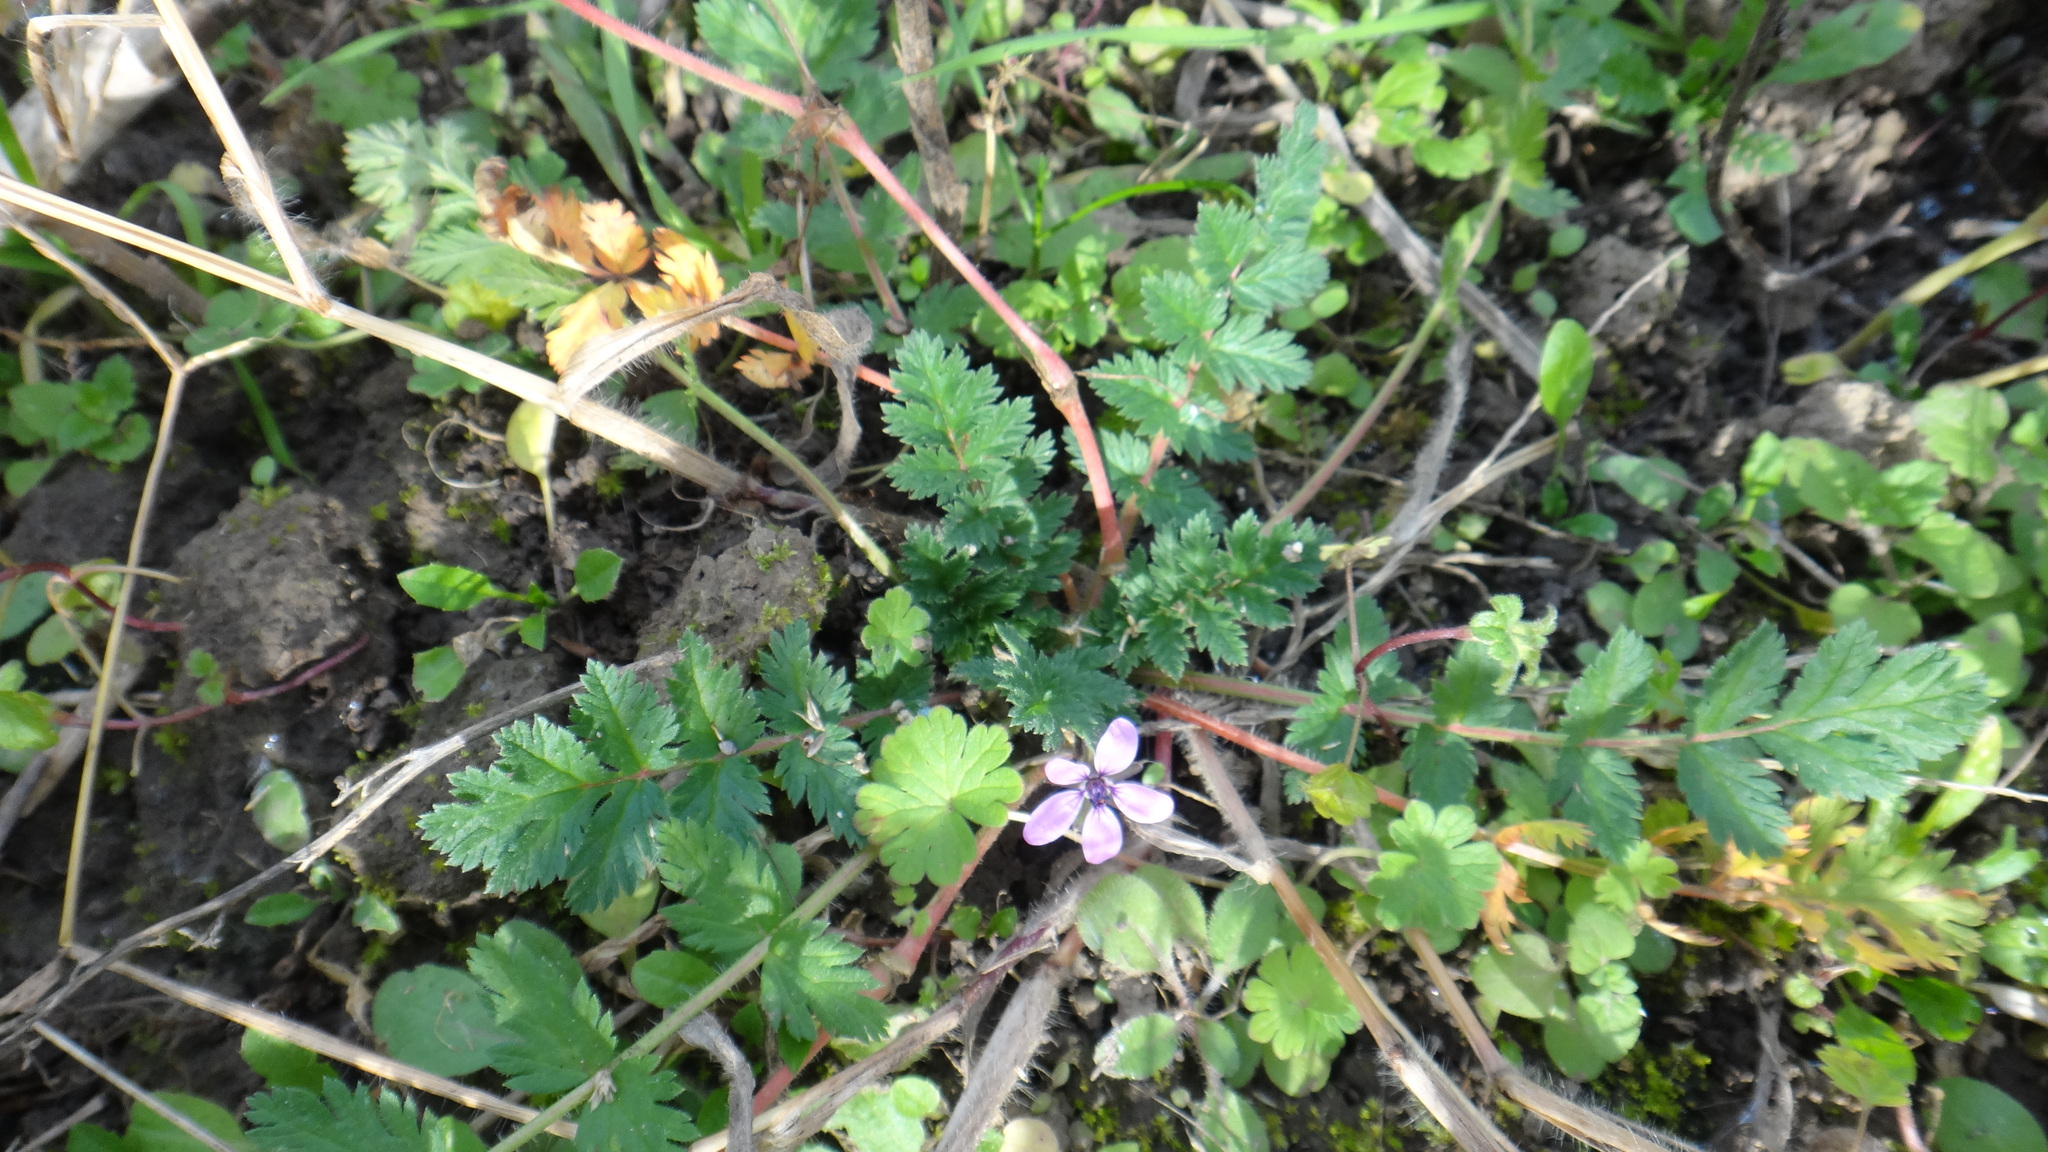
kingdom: Plantae
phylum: Tracheophyta
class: Magnoliopsida
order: Geraniales
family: Geraniaceae
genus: Erodium
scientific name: Erodium cicutarium
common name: Common stork's-bill
